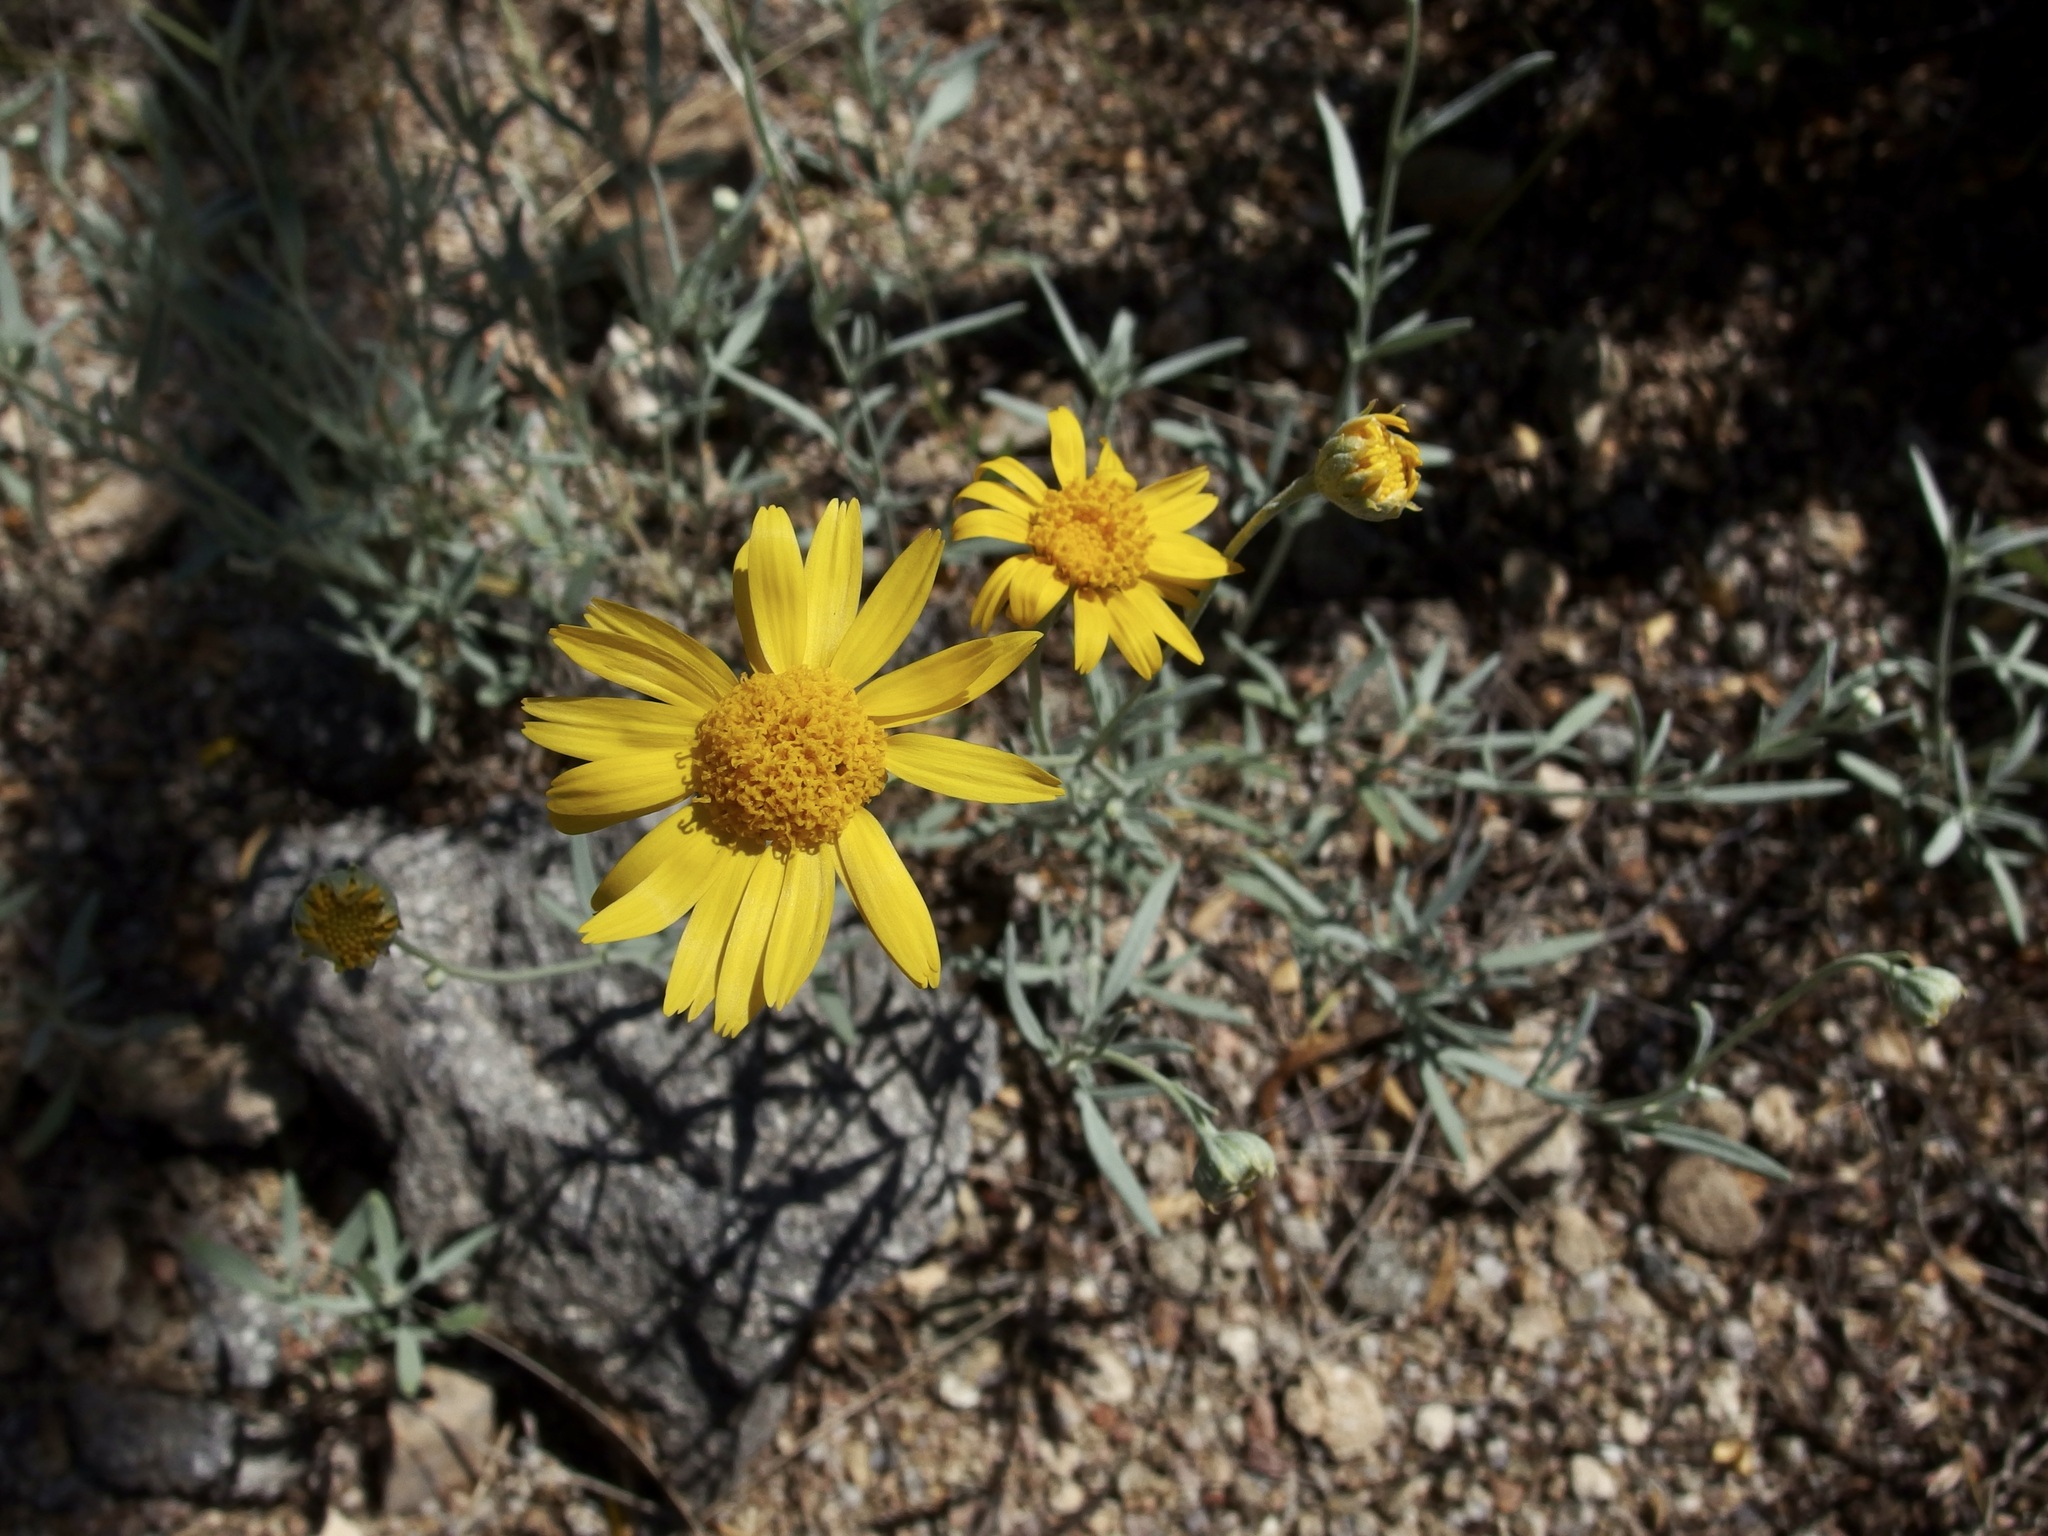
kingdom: Plantae
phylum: Tracheophyta
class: Magnoliopsida
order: Asterales
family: Asteraceae
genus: Picradeniopsis
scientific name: Picradeniopsis absinthifolia
